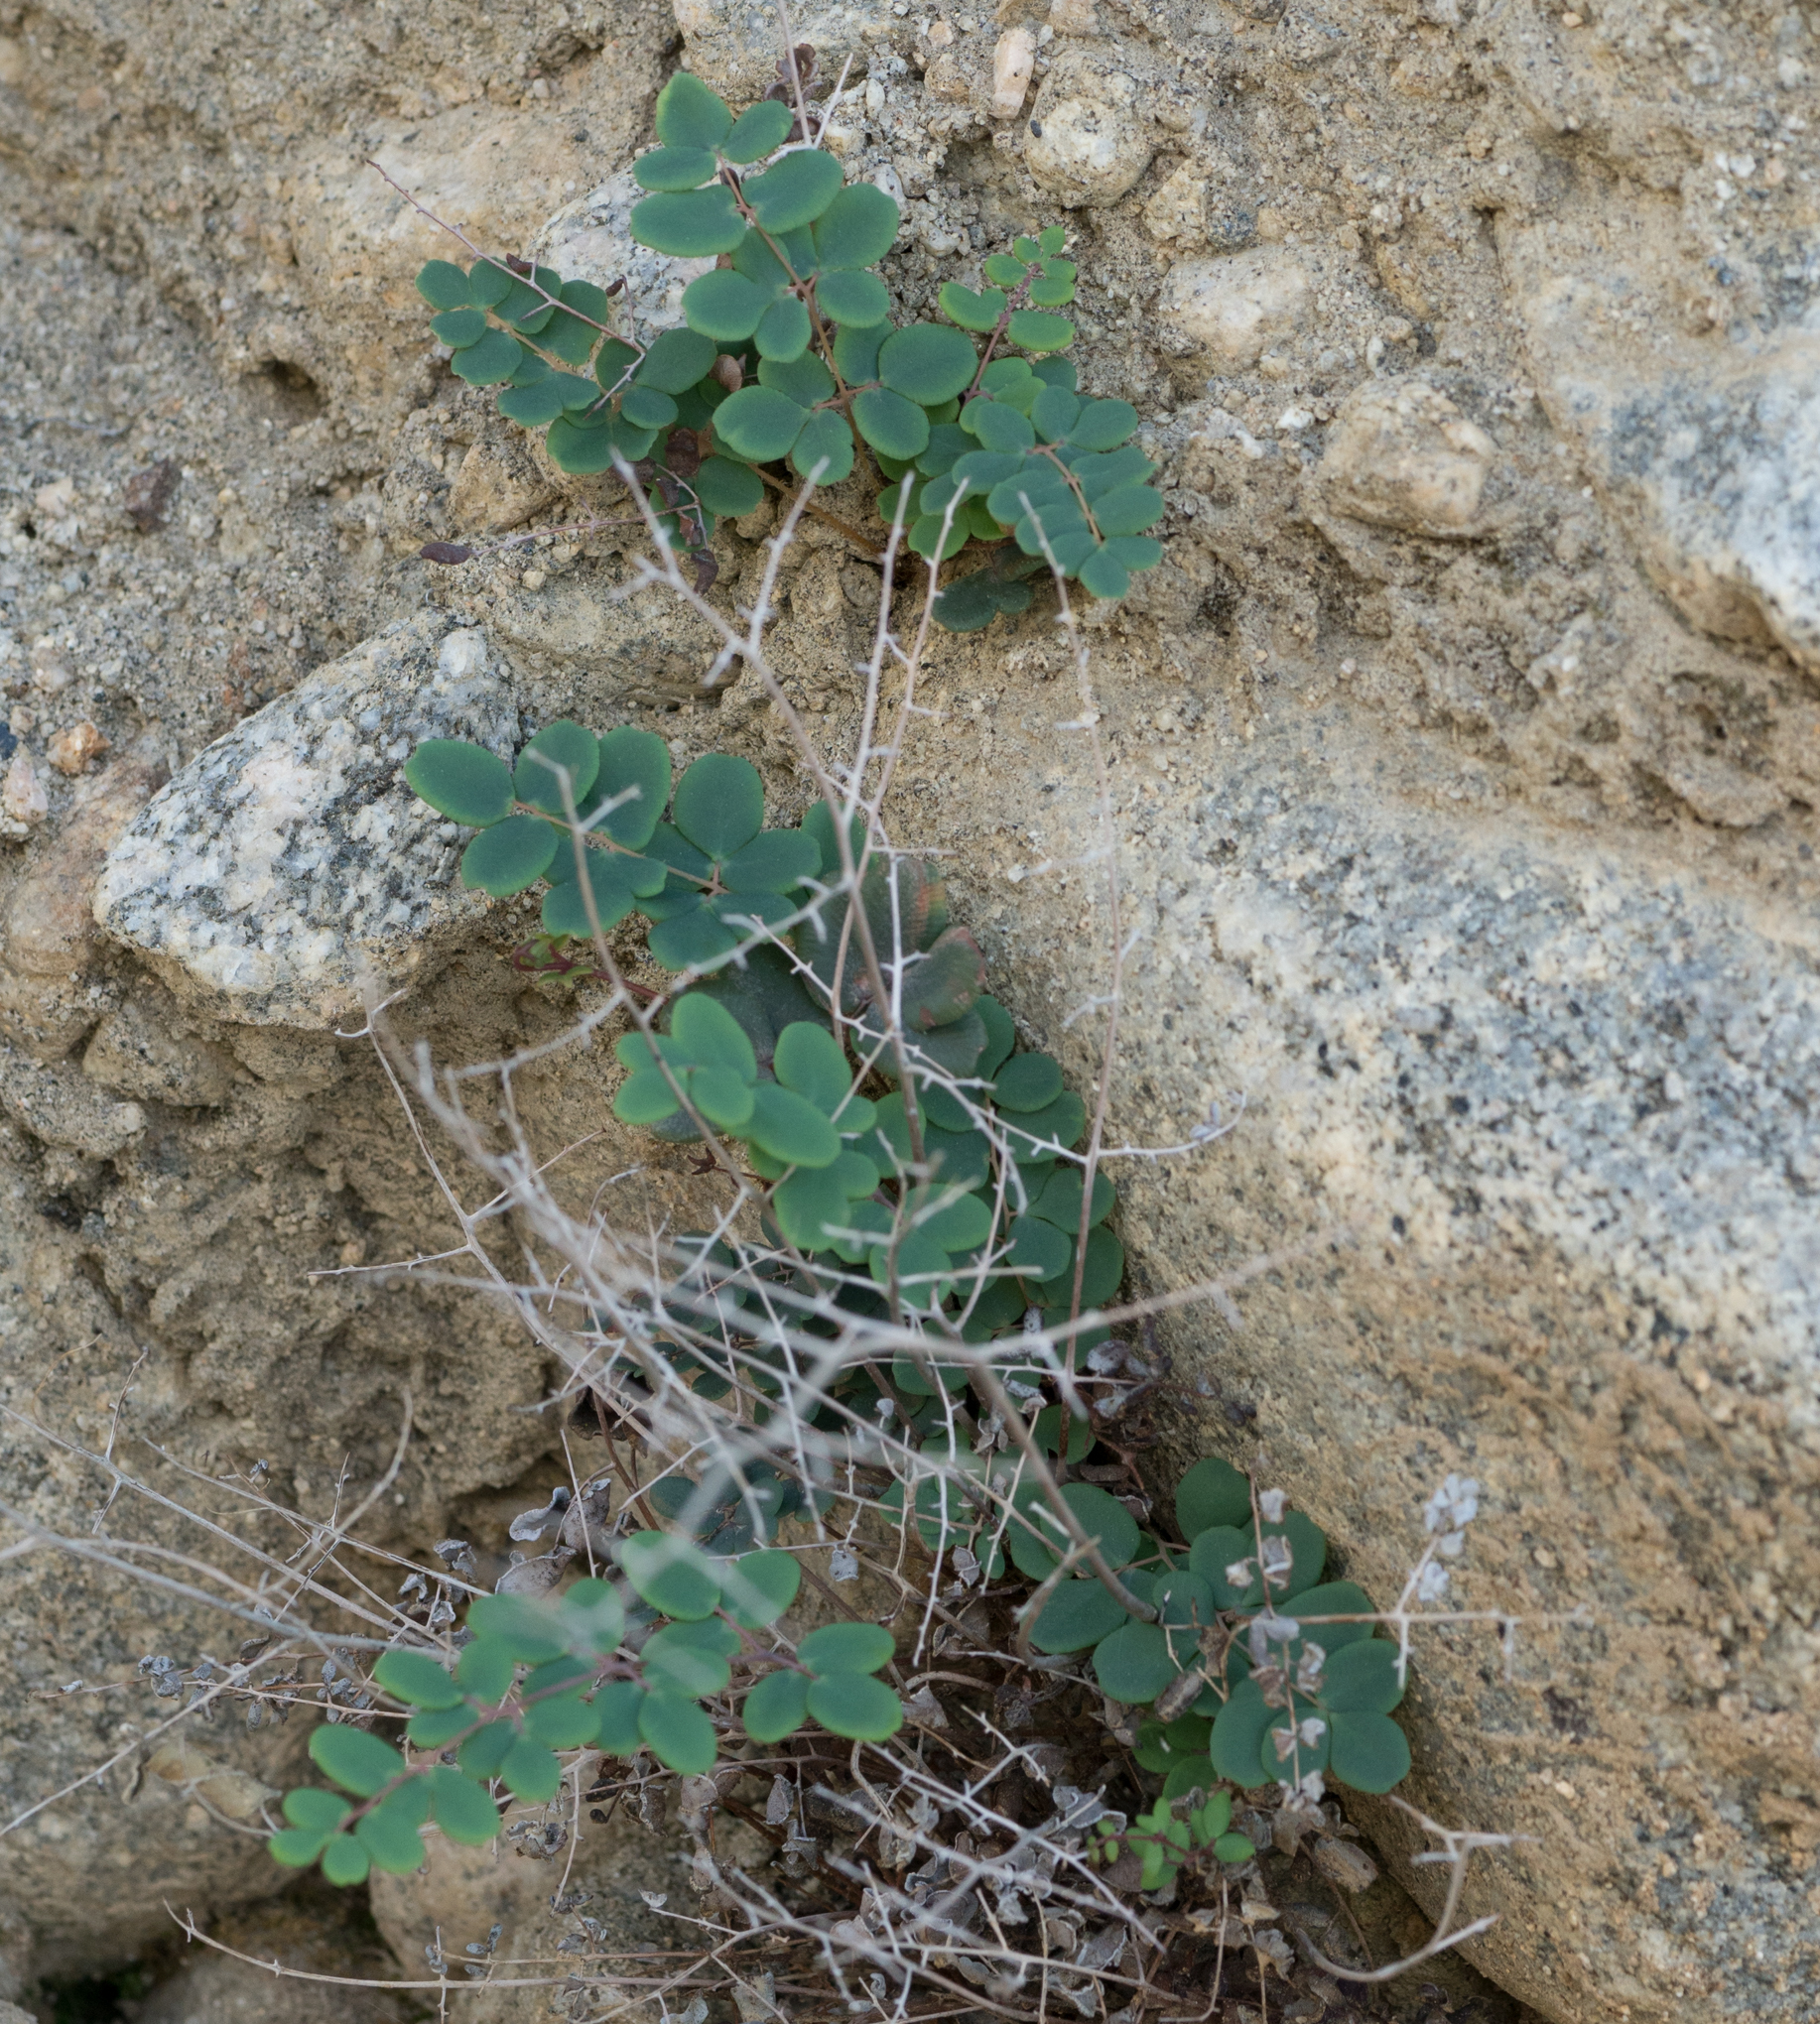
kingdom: Plantae
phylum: Tracheophyta
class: Polypodiopsida
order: Polypodiales
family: Pteridaceae
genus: Pellaea
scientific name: Pellaea andromedifolia
